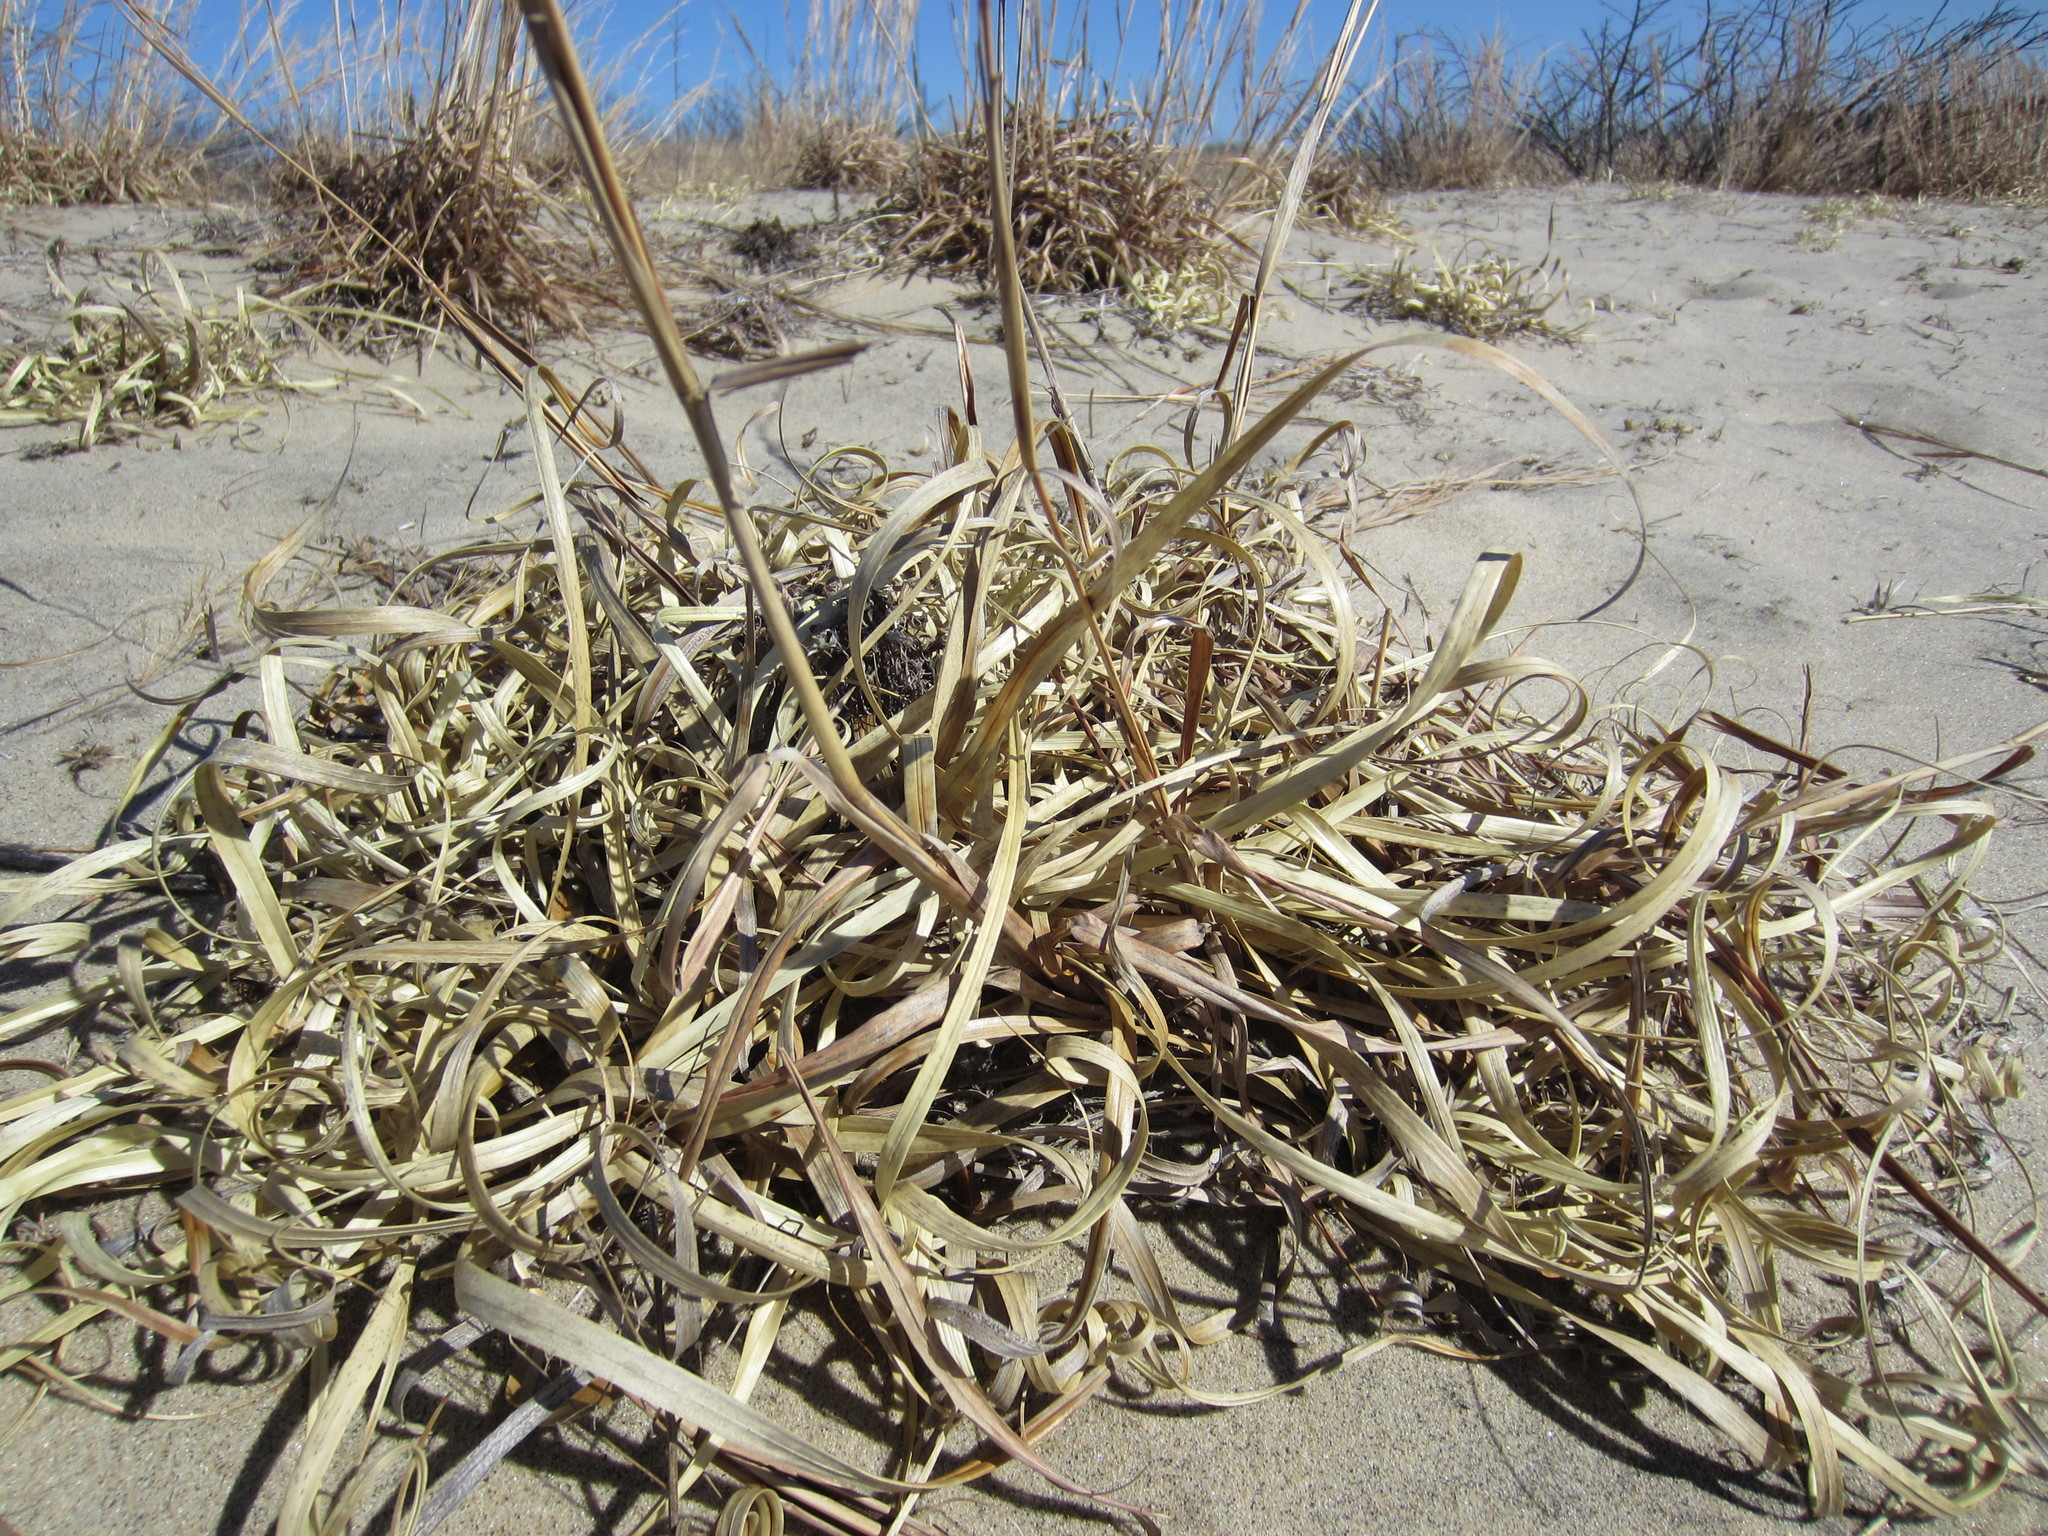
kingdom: Plantae
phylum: Tracheophyta
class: Liliopsida
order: Poales
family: Cyperaceae
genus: Carex
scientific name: Carex kobomugi
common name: Japanese sedge
